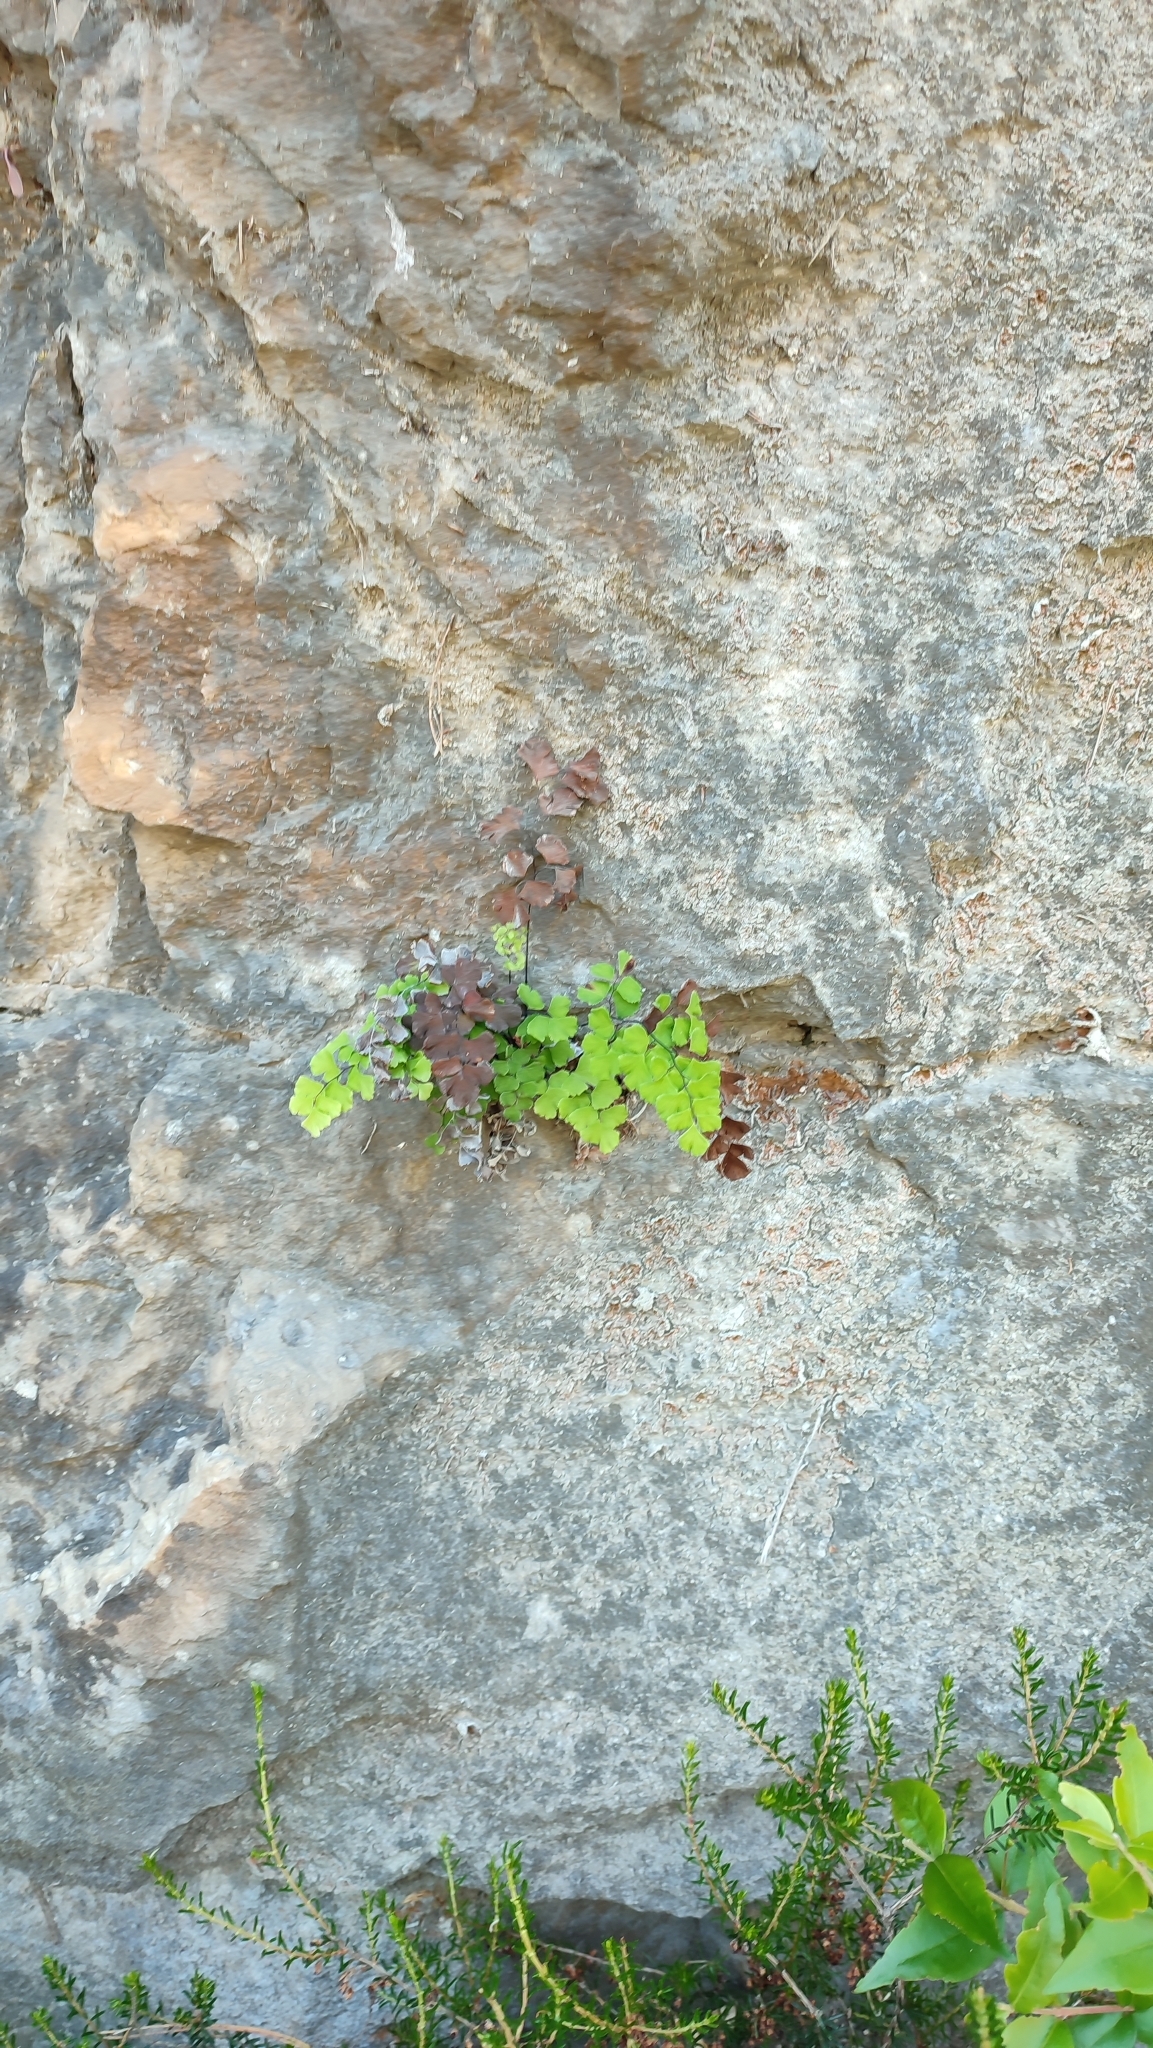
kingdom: Plantae
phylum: Tracheophyta
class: Polypodiopsida
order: Polypodiales
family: Pteridaceae
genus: Adiantum
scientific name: Adiantum capillus-veneris
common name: Maidenhair fern
